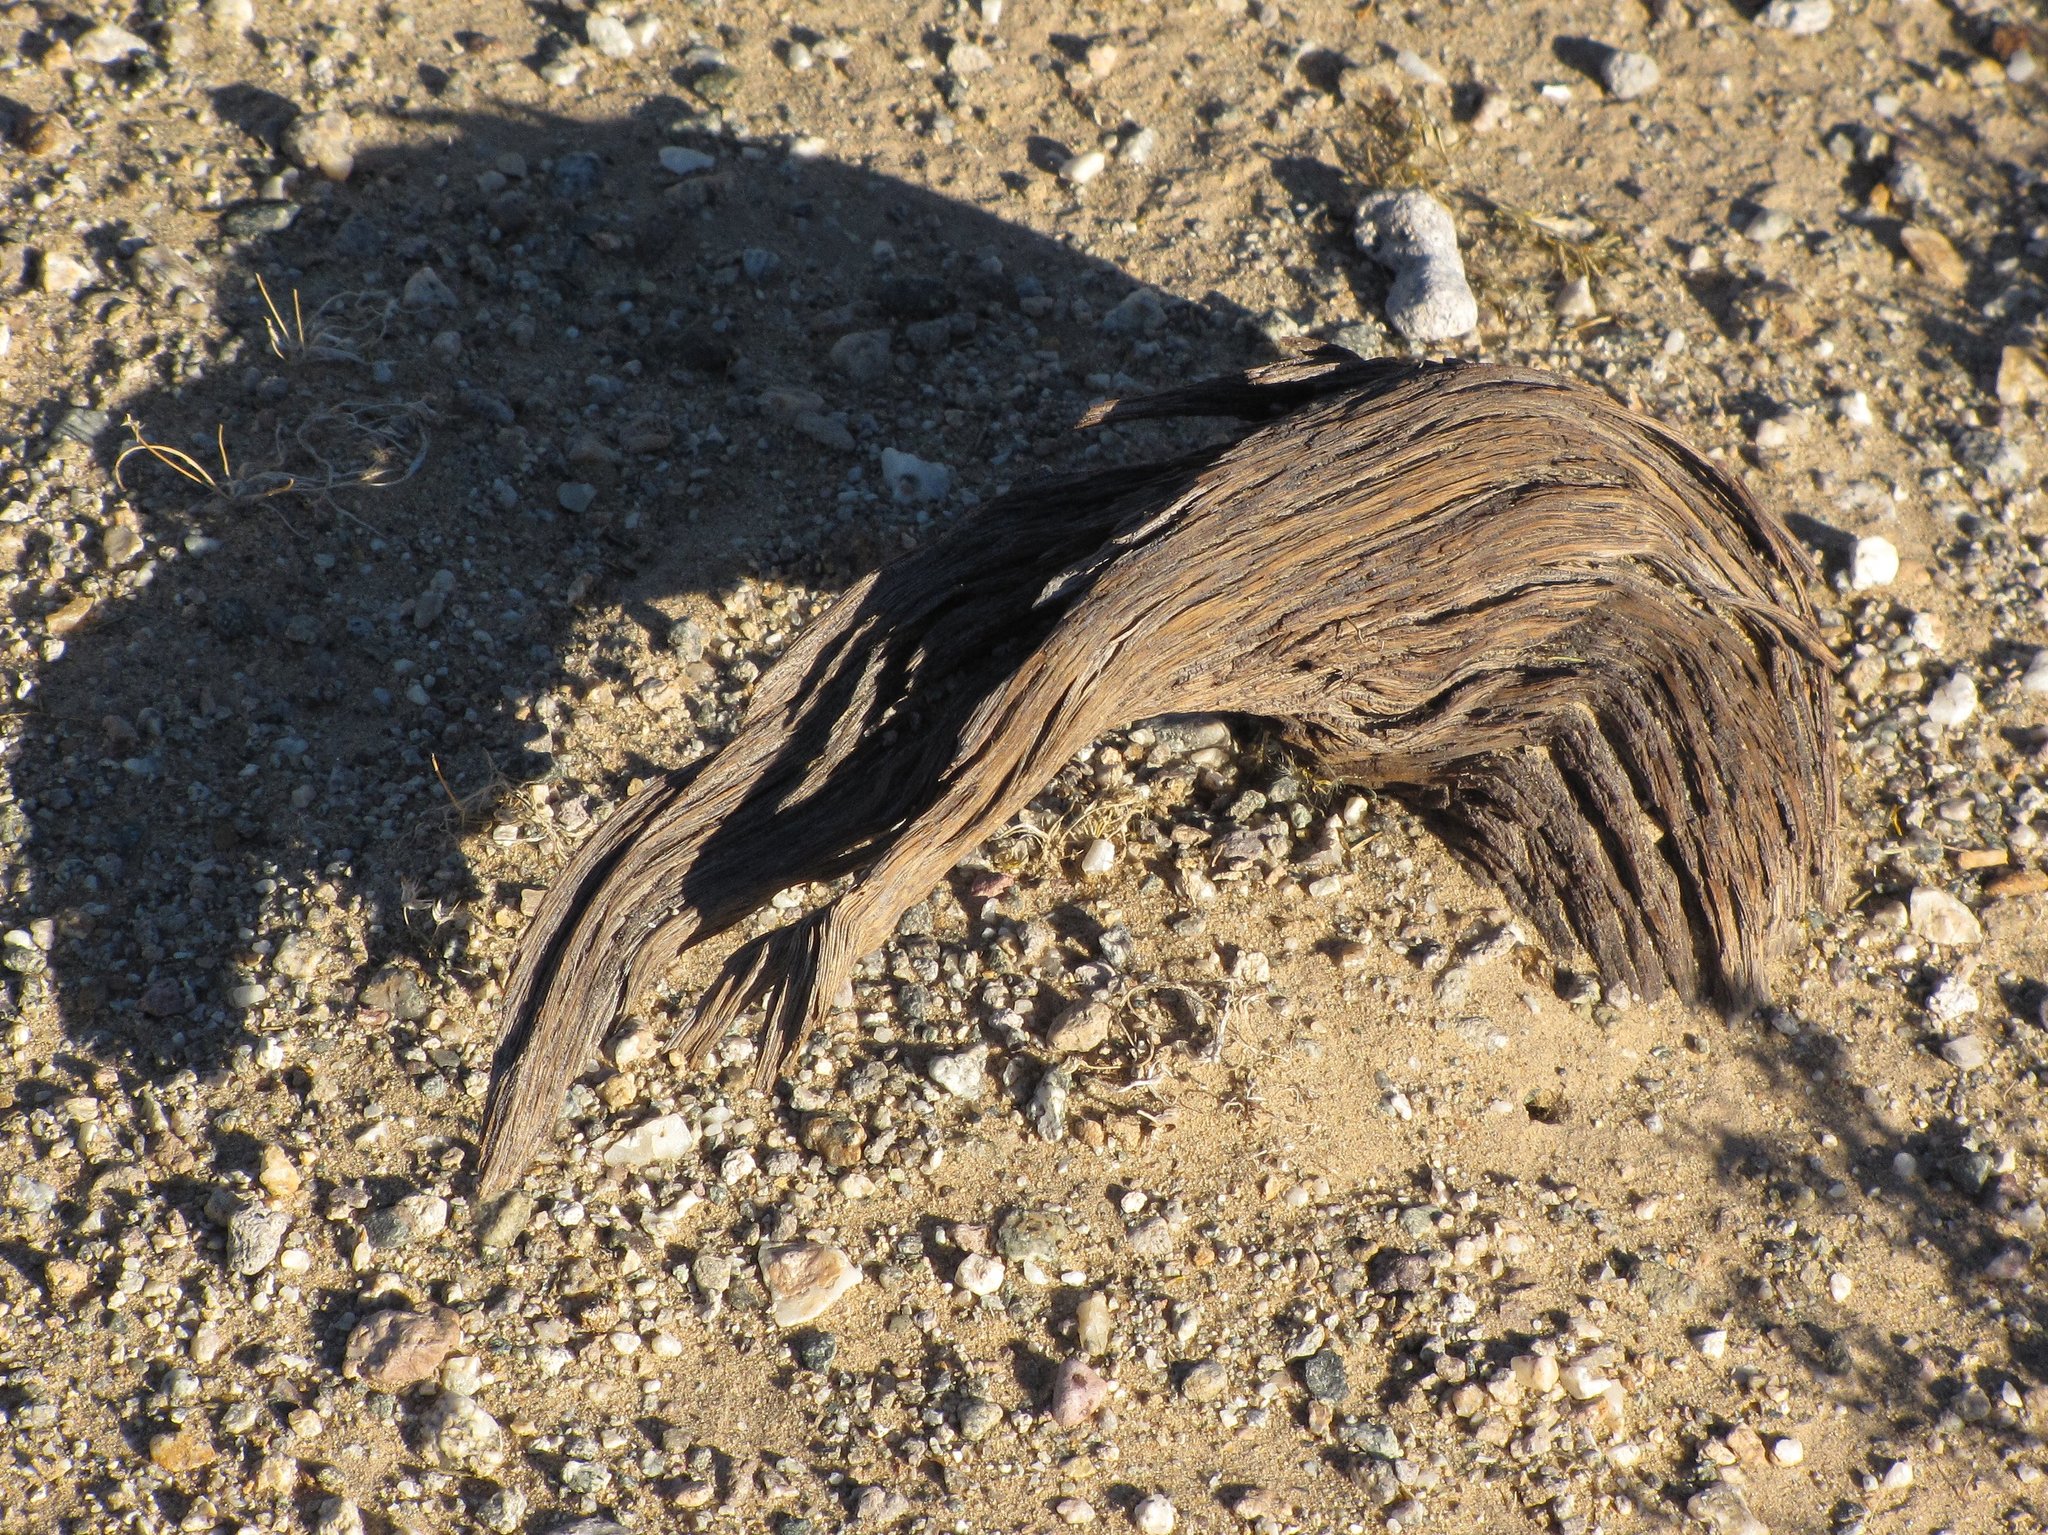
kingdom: Plantae
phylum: Tracheophyta
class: Magnoliopsida
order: Fabales
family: Fabaceae
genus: Olneya
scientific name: Olneya tesota
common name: Desert ironwood
